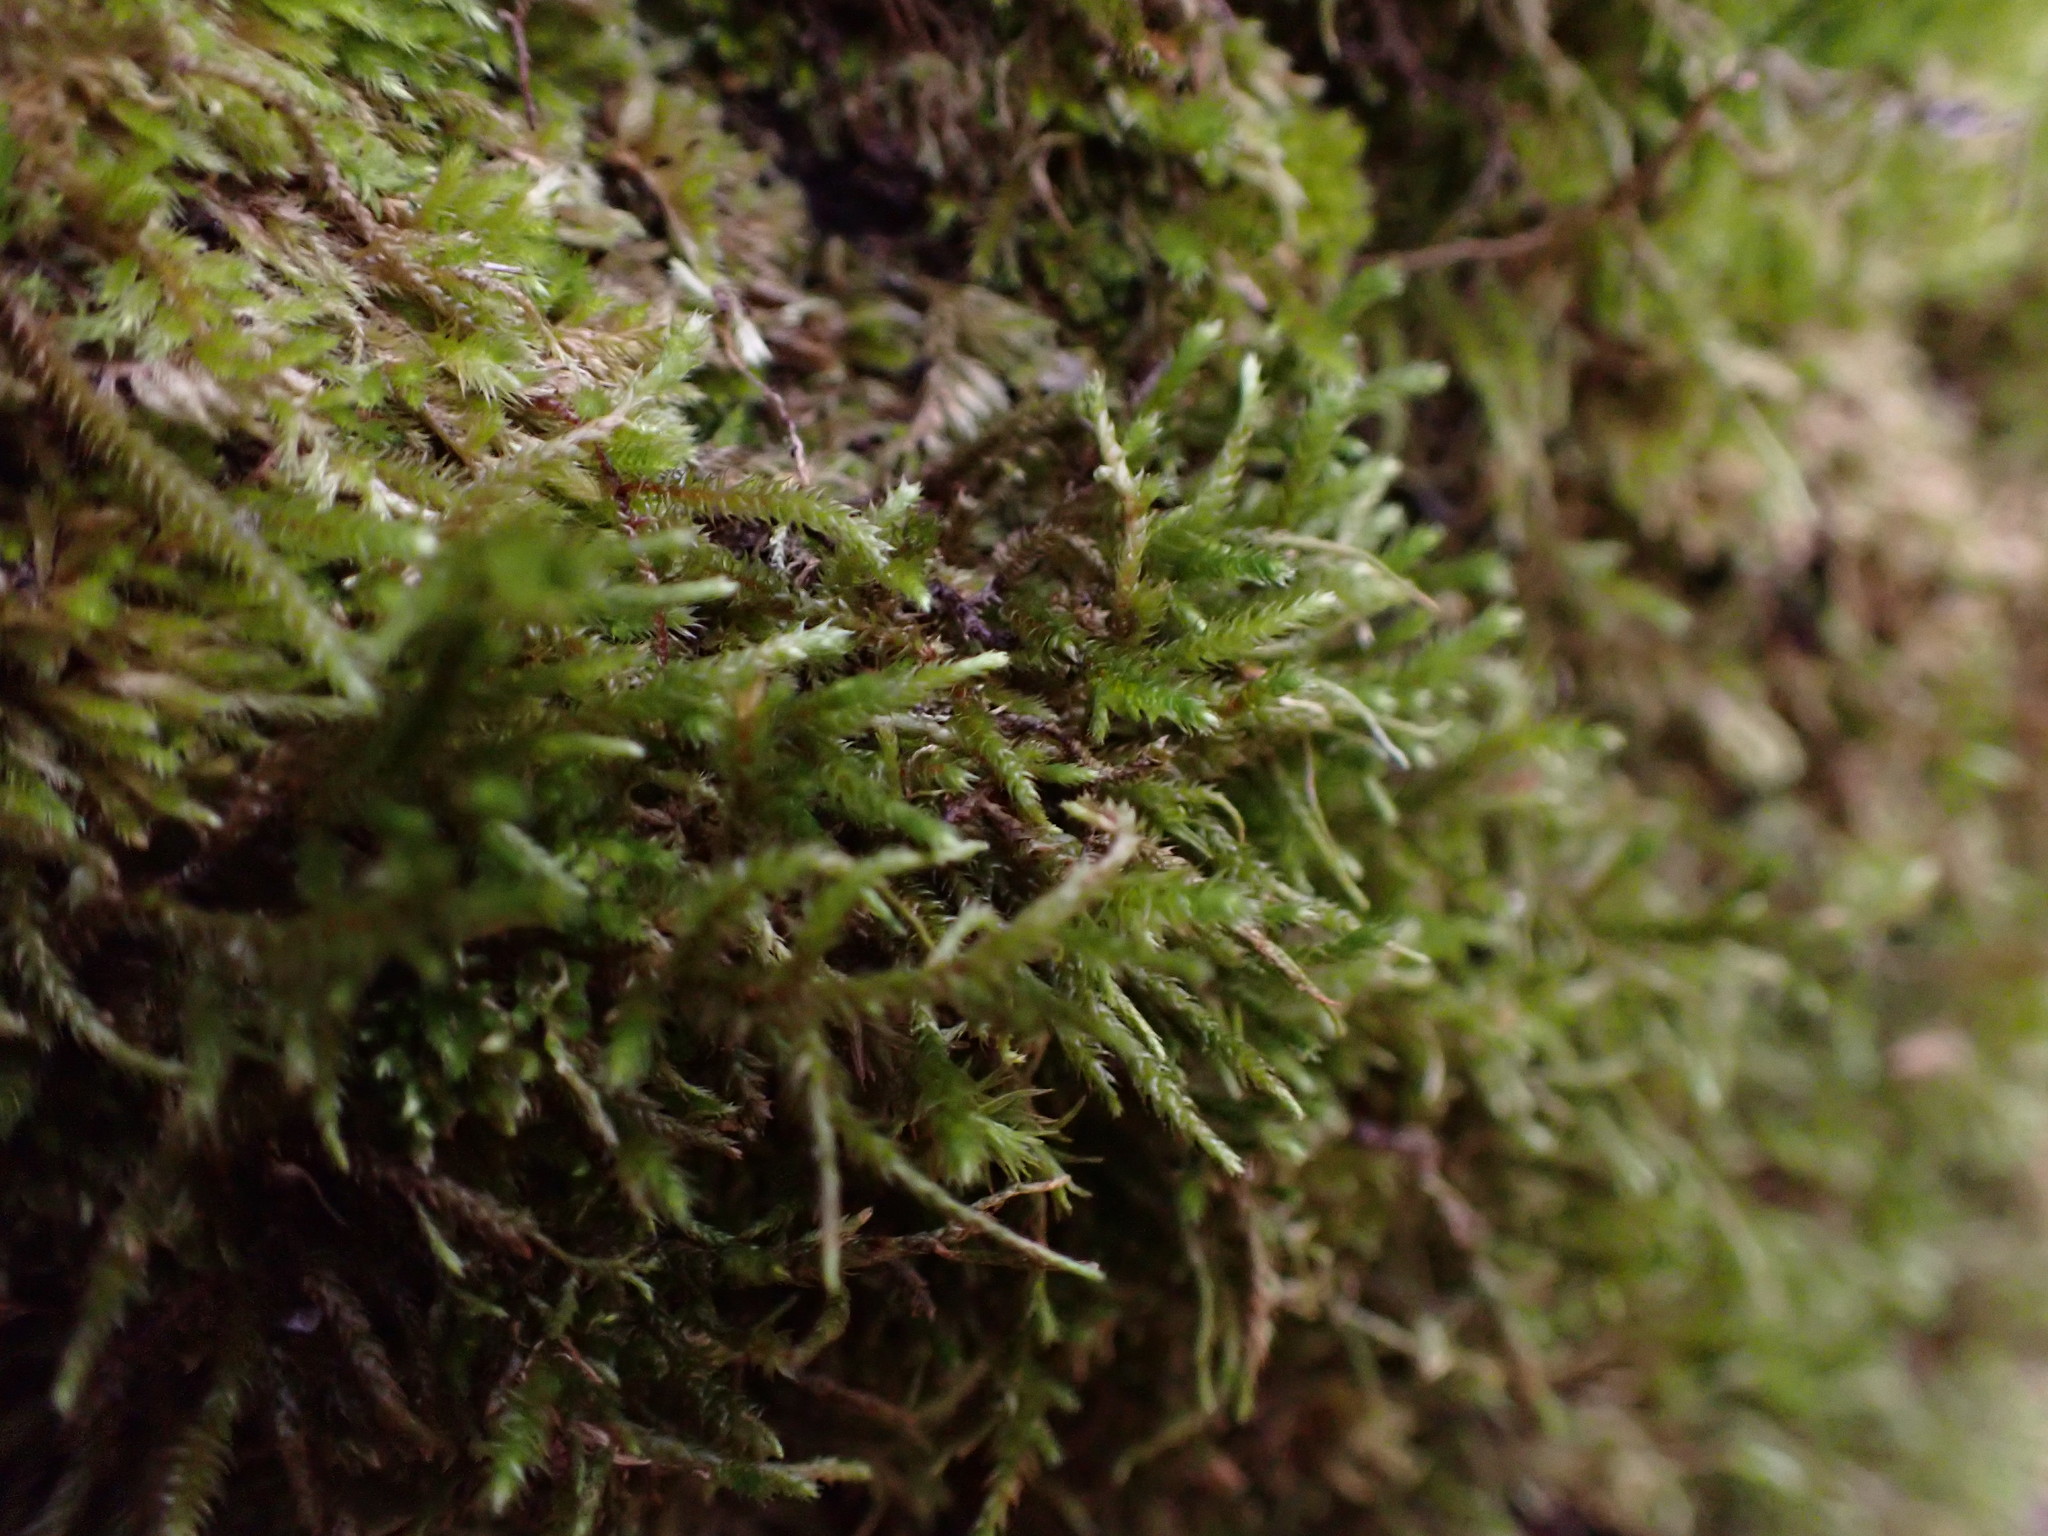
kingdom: Plantae
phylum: Bryophyta
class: Bryopsida
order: Hypnales
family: Antitrichiaceae
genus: Antitrichia
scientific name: Antitrichia californica
